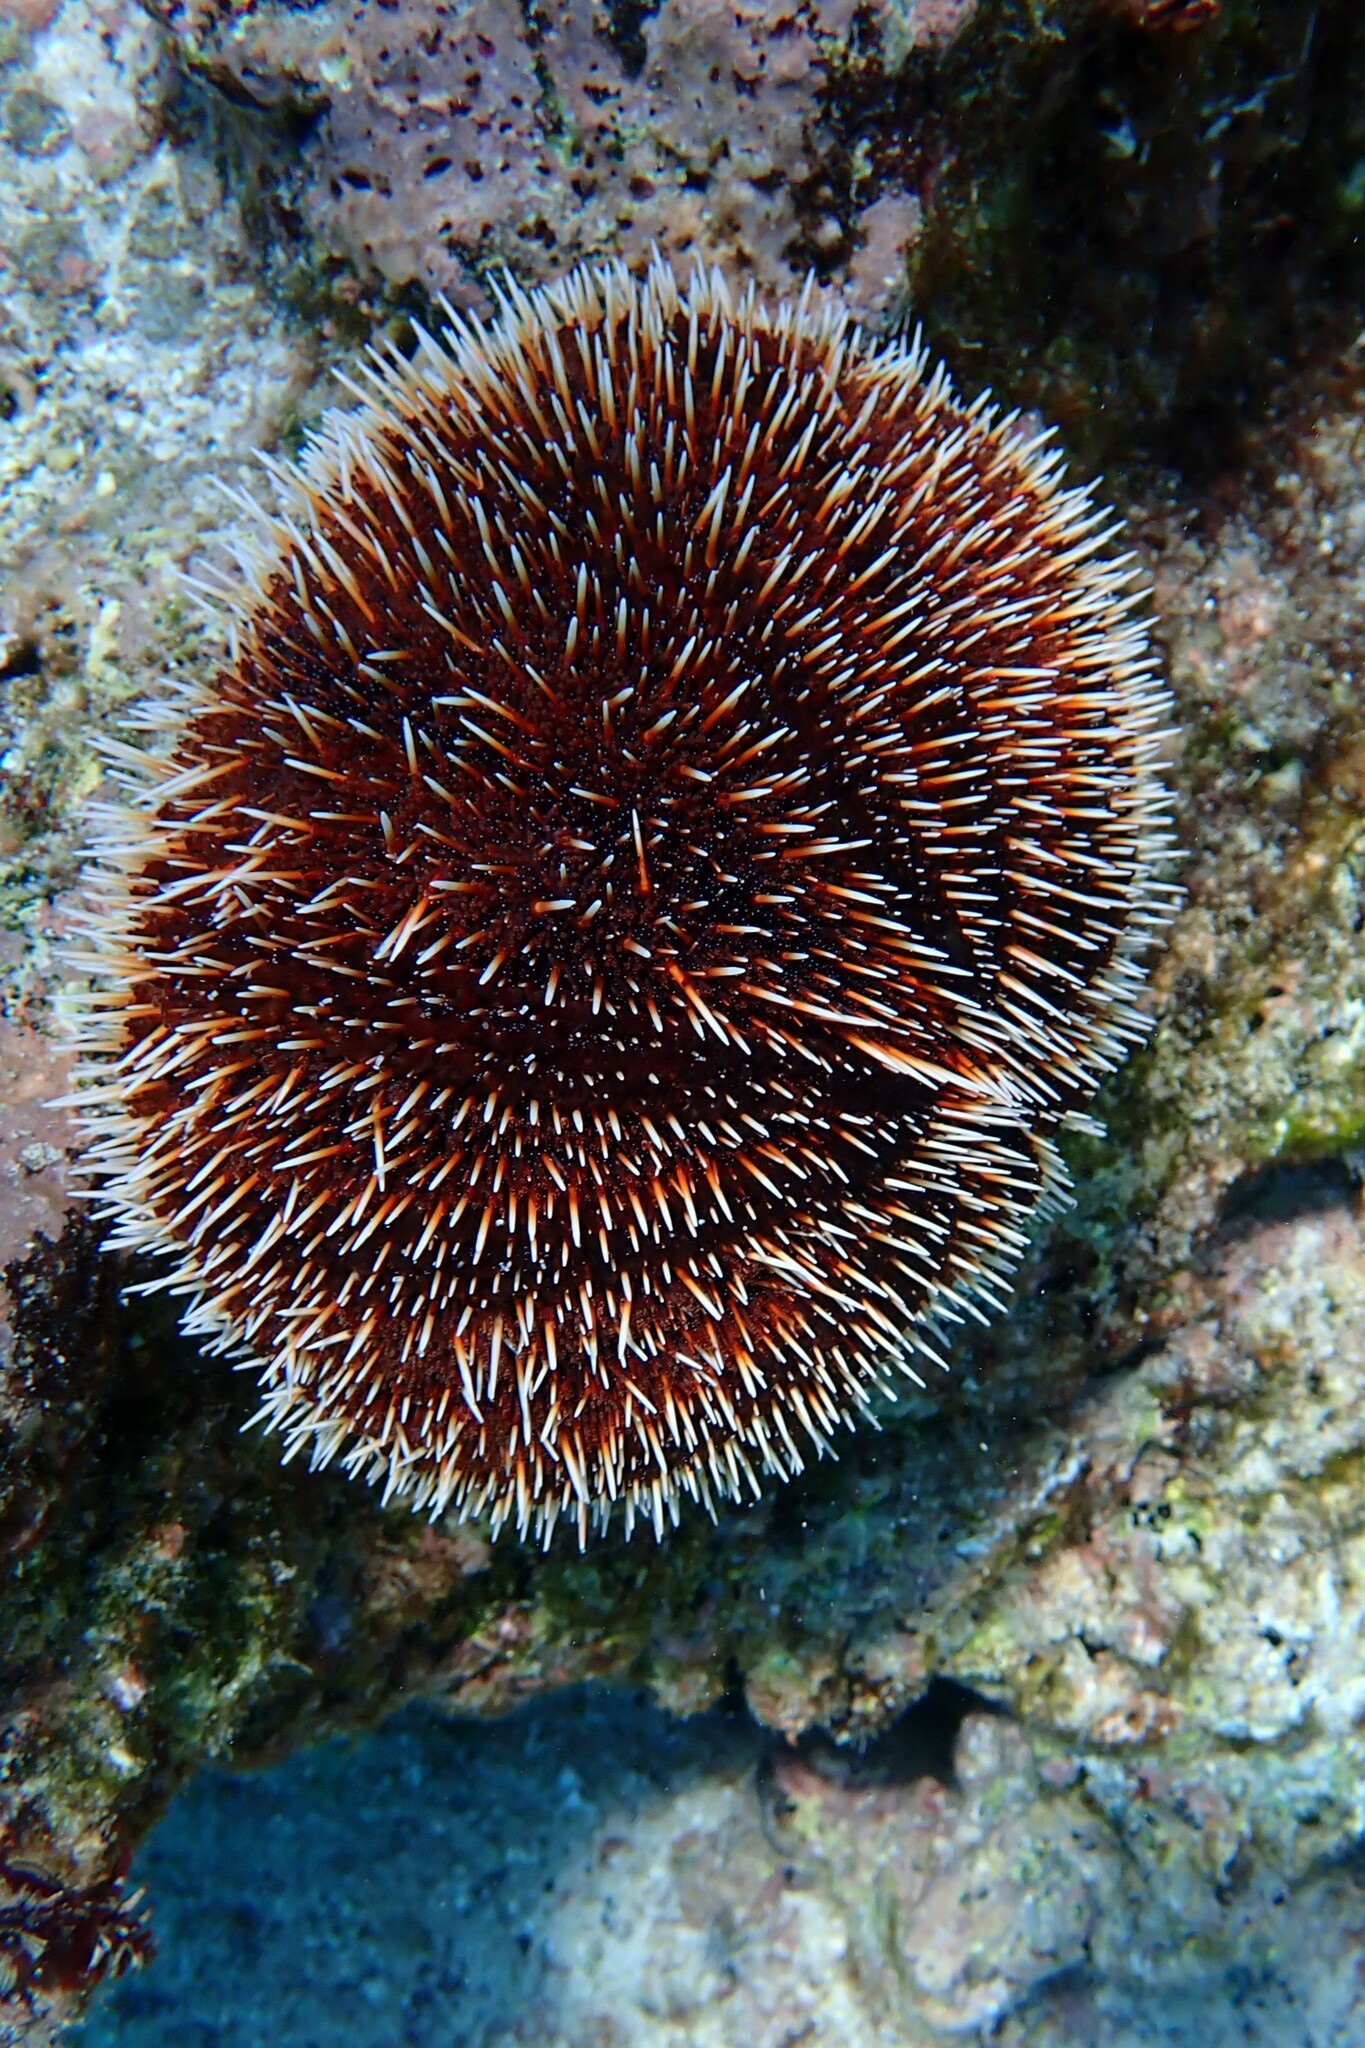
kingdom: Animalia
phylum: Echinodermata
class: Echinoidea
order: Camarodonta
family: Toxopneustidae
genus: Tripneustes
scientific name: Tripneustes depressus
